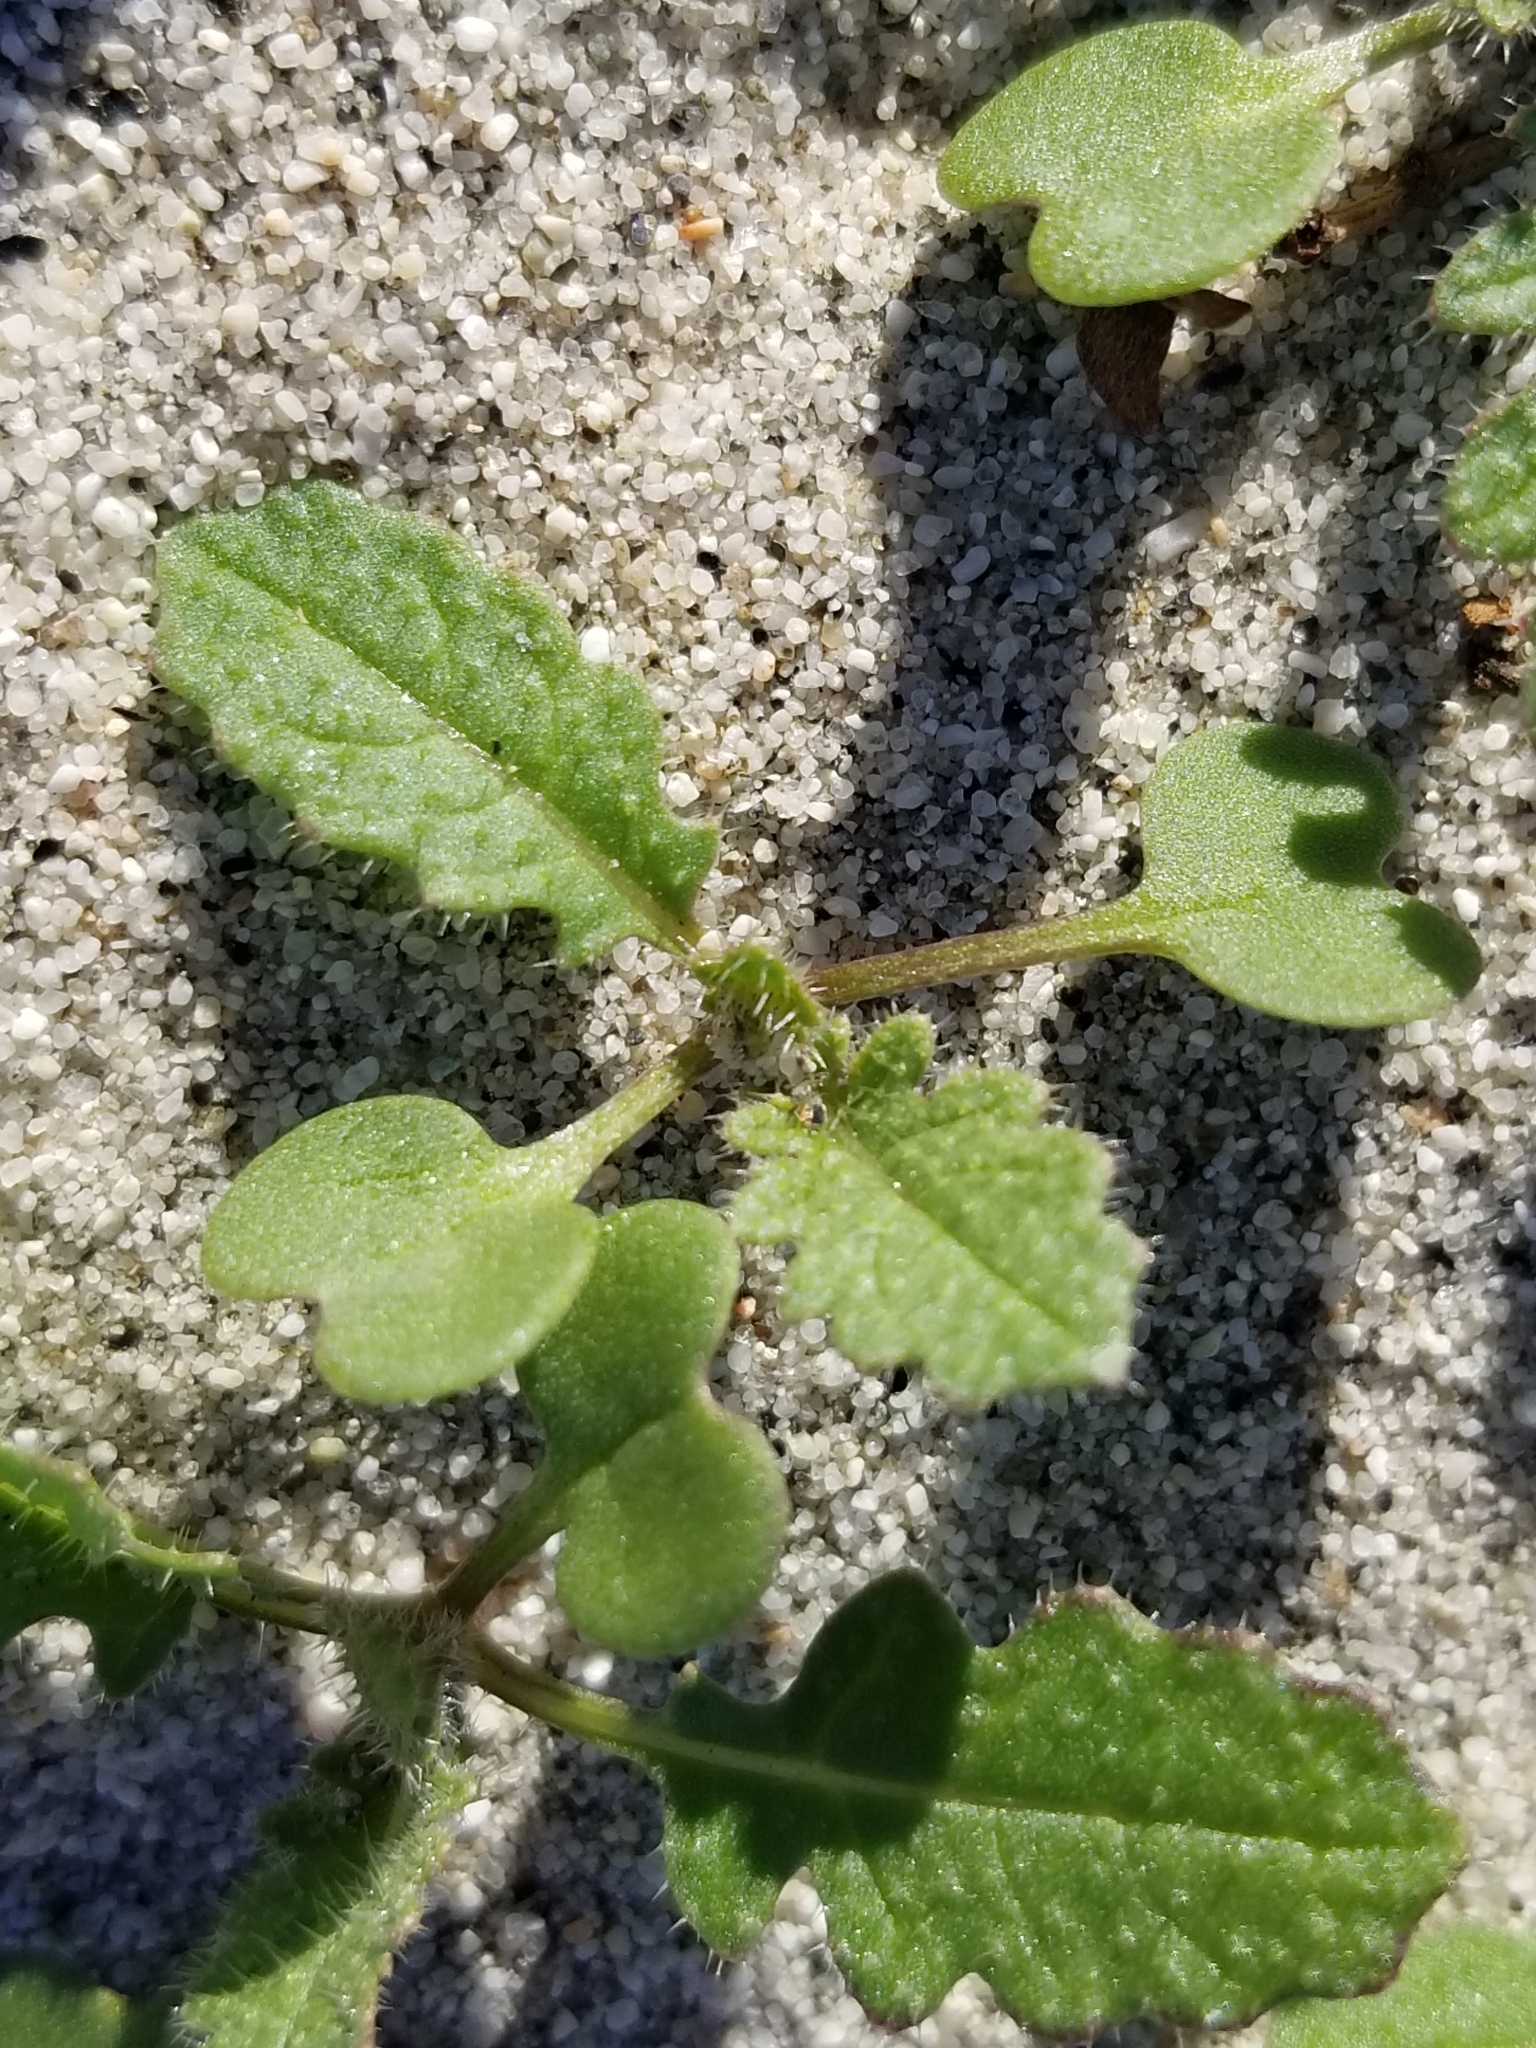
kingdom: Plantae
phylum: Tracheophyta
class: Magnoliopsida
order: Brassicales
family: Brassicaceae
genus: Brassica
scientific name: Brassica tournefortii
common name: Pale cabbage
